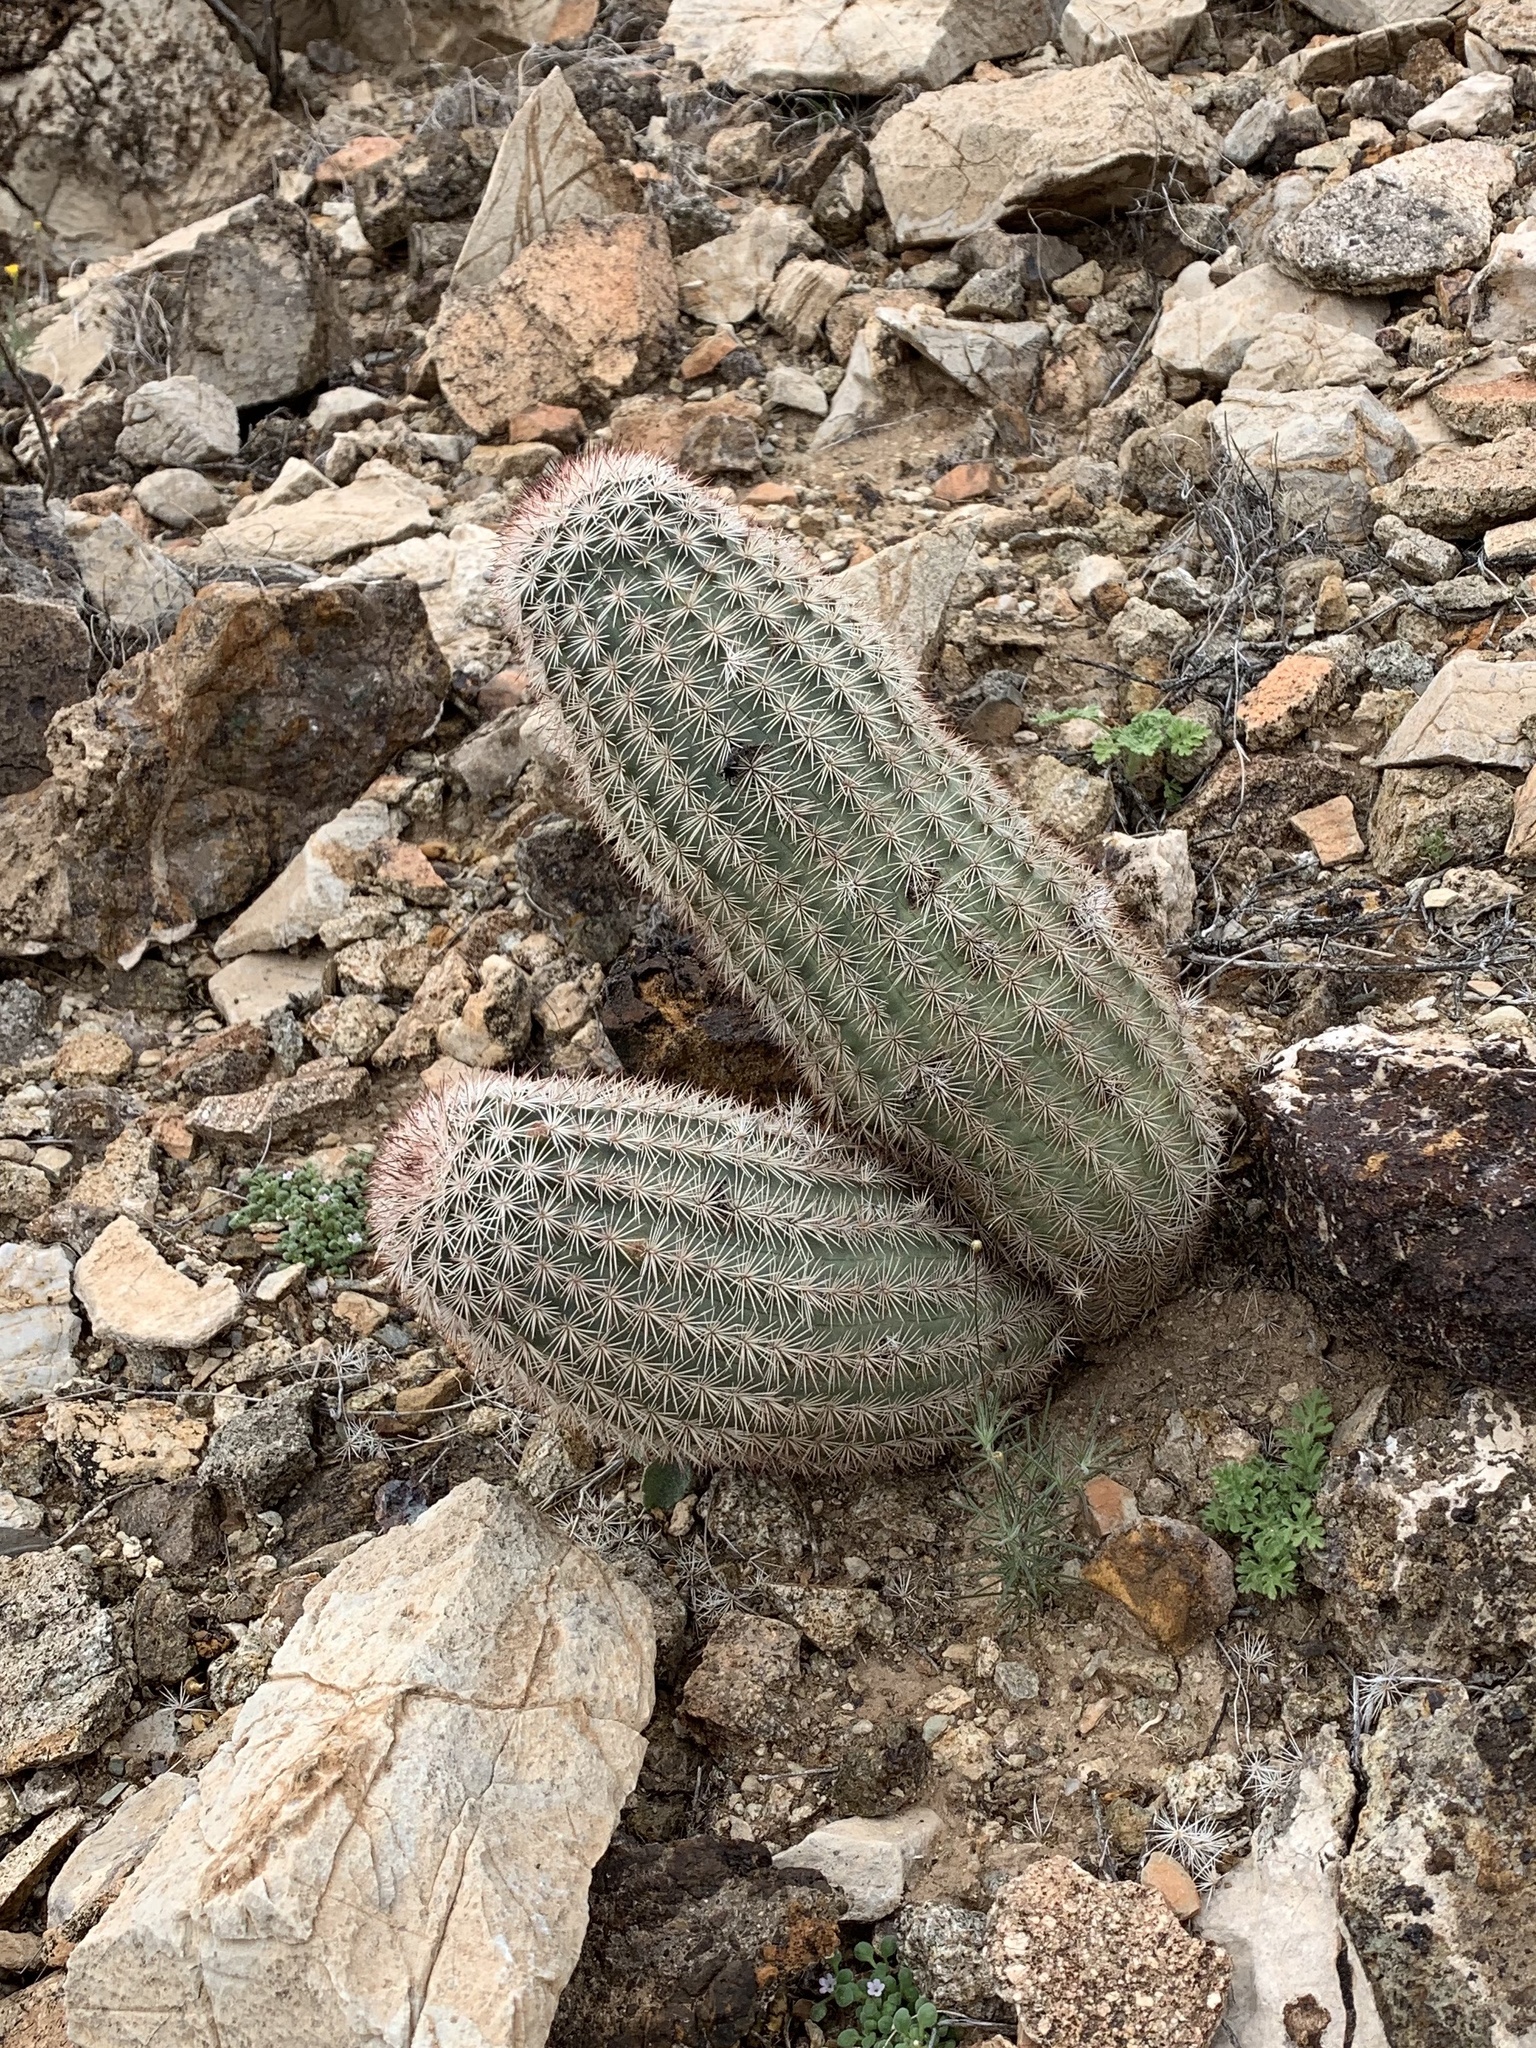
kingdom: Plantae
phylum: Tracheophyta
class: Magnoliopsida
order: Caryophyllales
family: Cactaceae
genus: Echinocereus
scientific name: Echinocereus dasyacanthus
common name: Spiny hedgehog cactus
